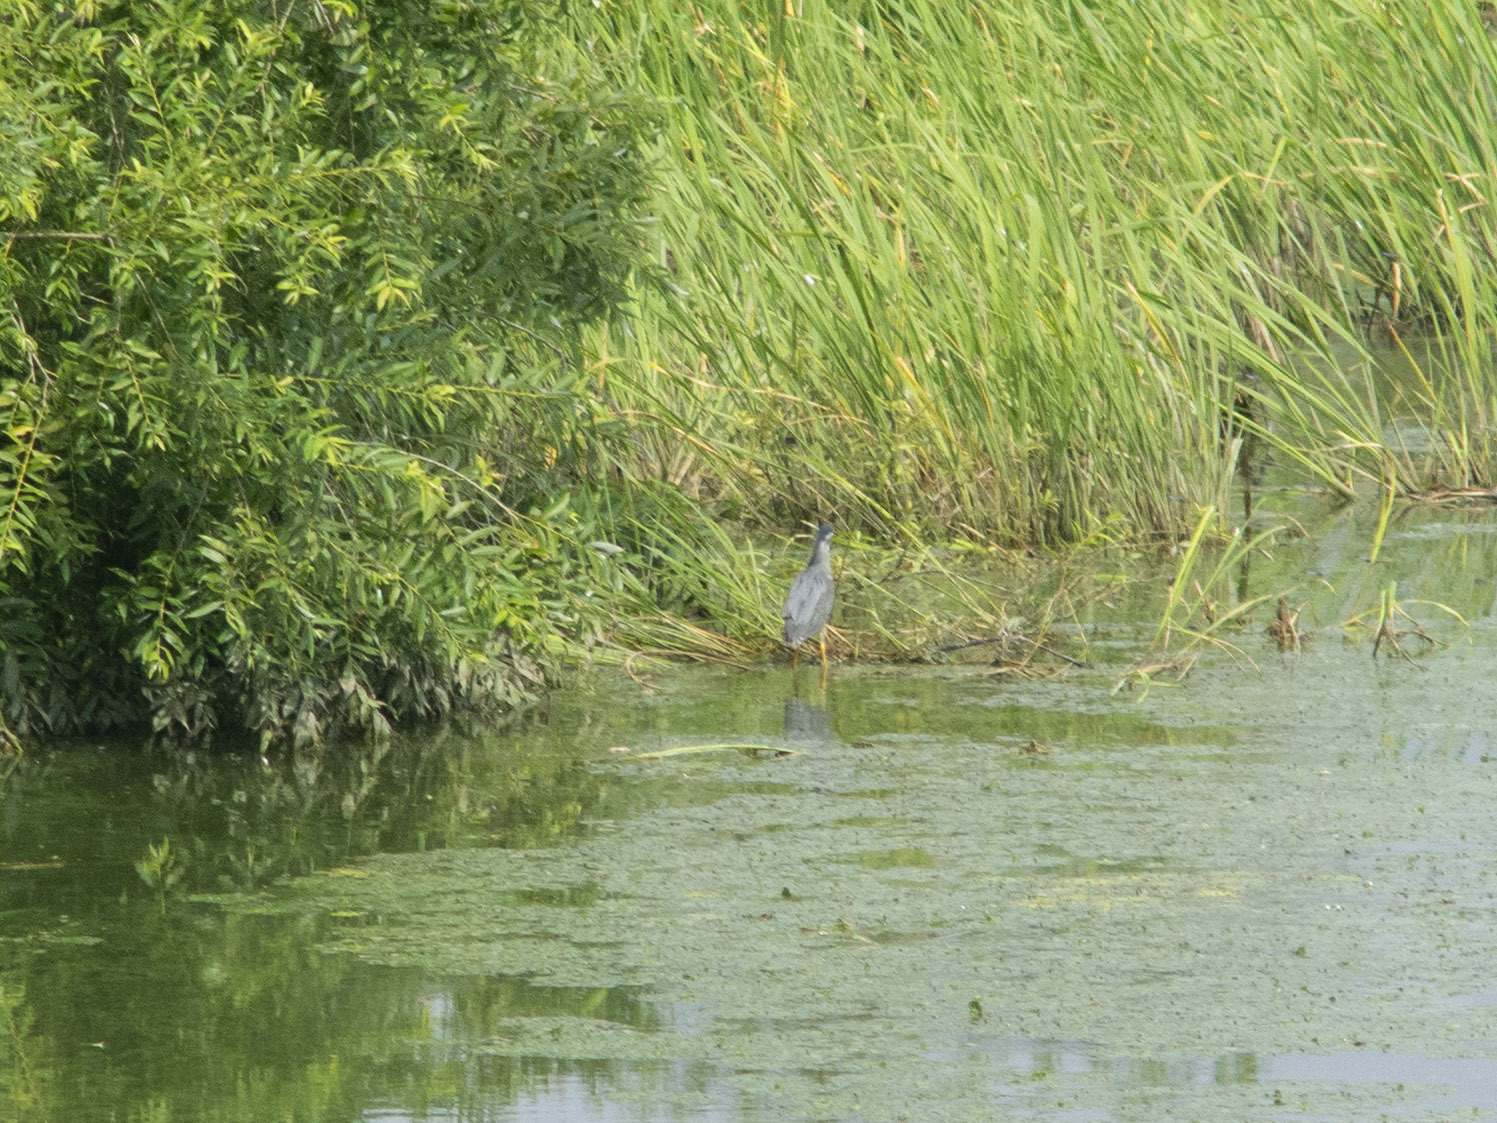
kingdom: Animalia
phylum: Chordata
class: Aves
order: Pelecaniformes
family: Ardeidae
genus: Butorides
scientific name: Butorides striata
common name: Striated heron
